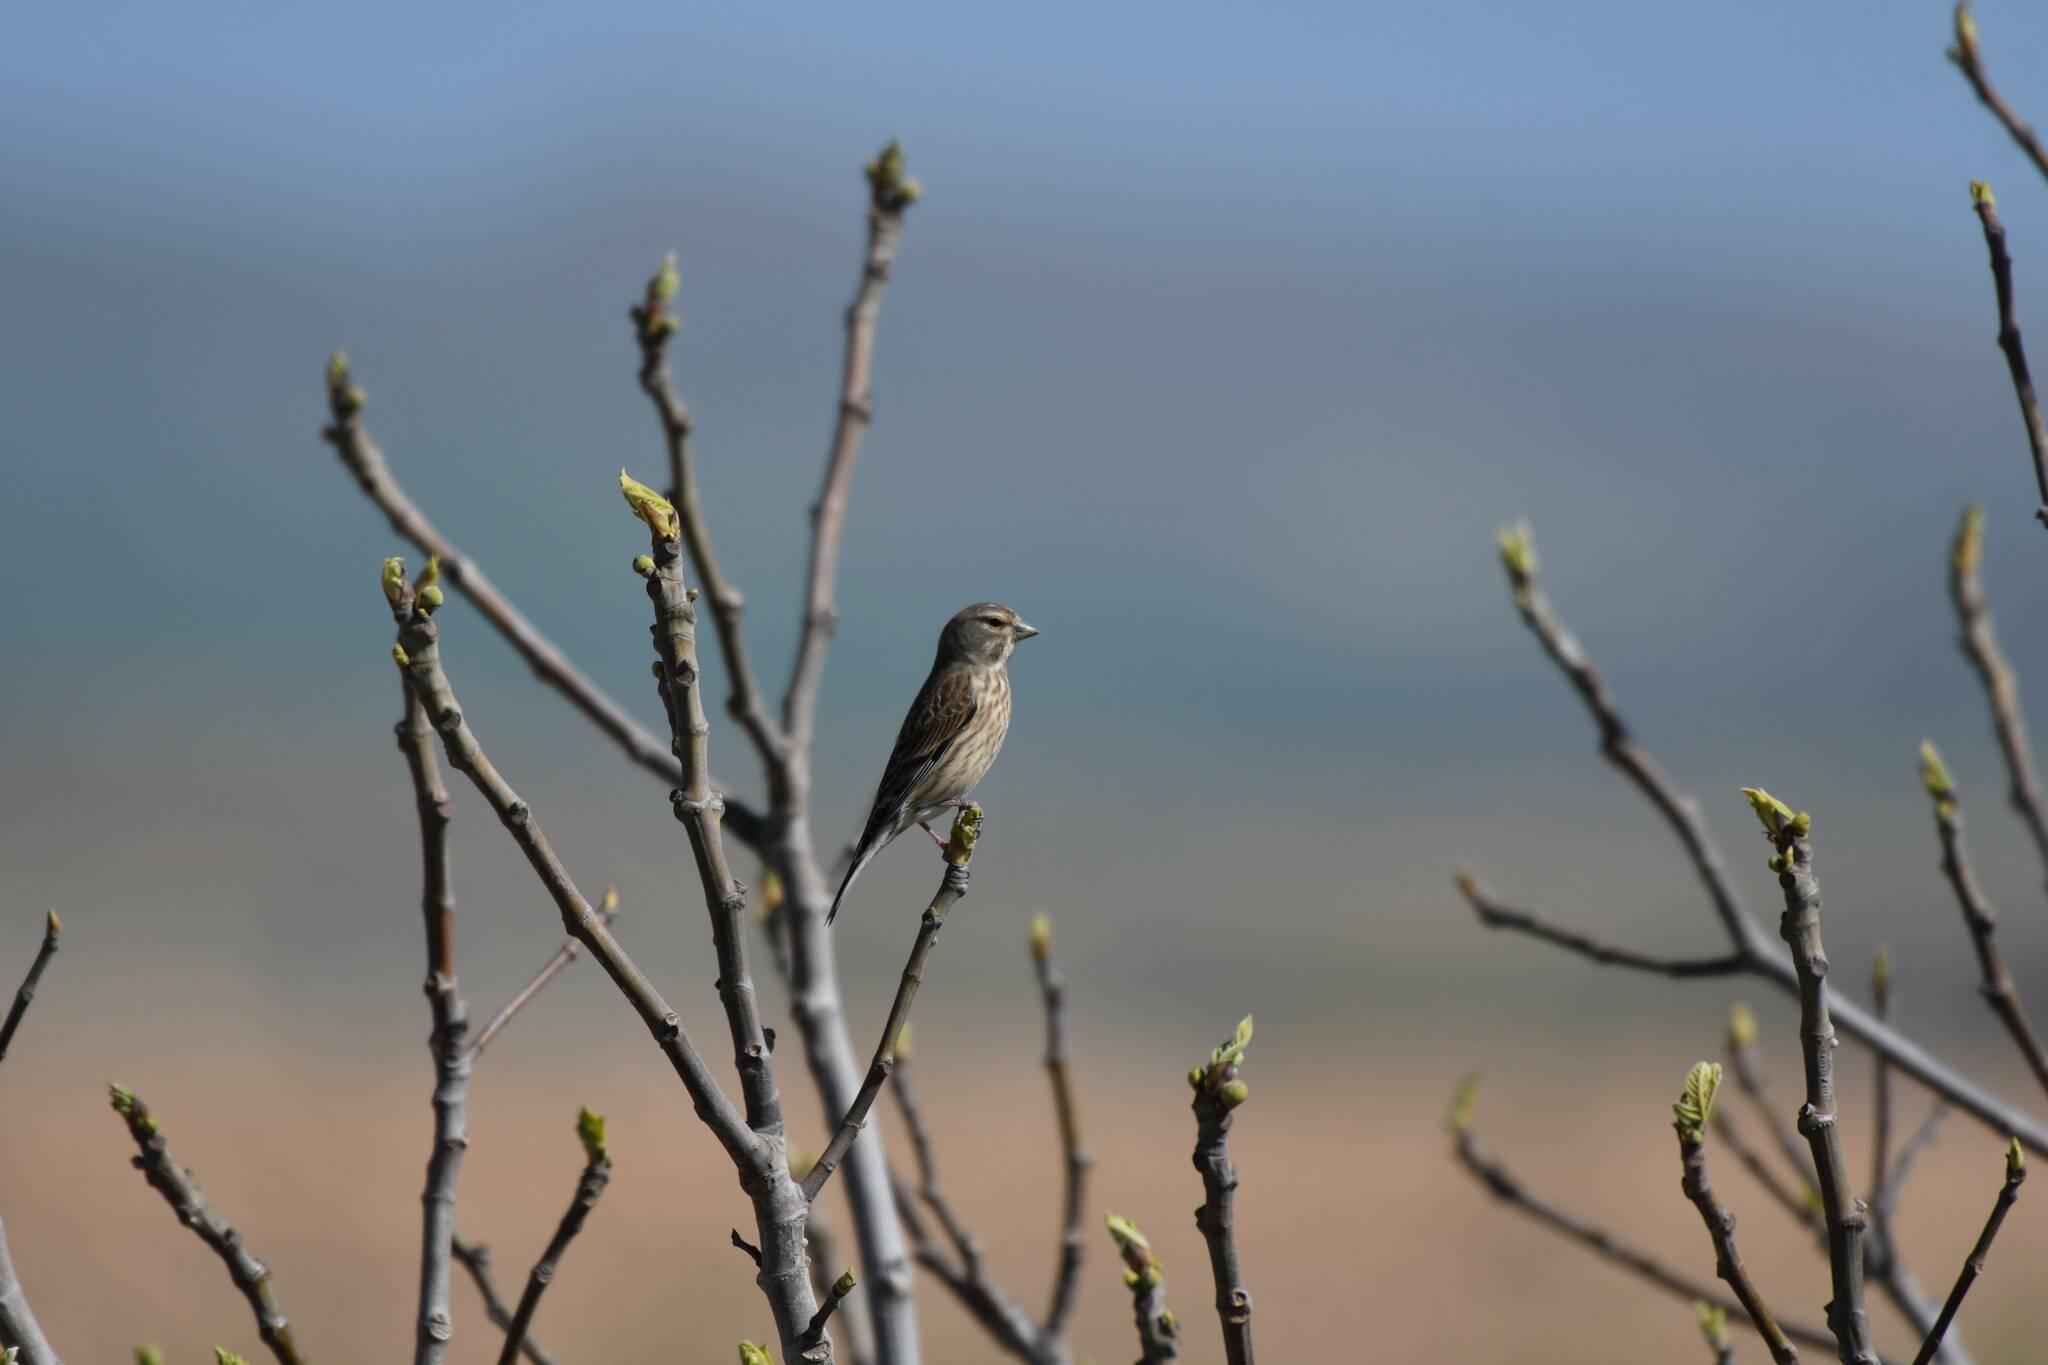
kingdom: Animalia
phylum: Chordata
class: Aves
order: Passeriformes
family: Fringillidae
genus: Linaria
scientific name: Linaria cannabina
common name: Common linnet
